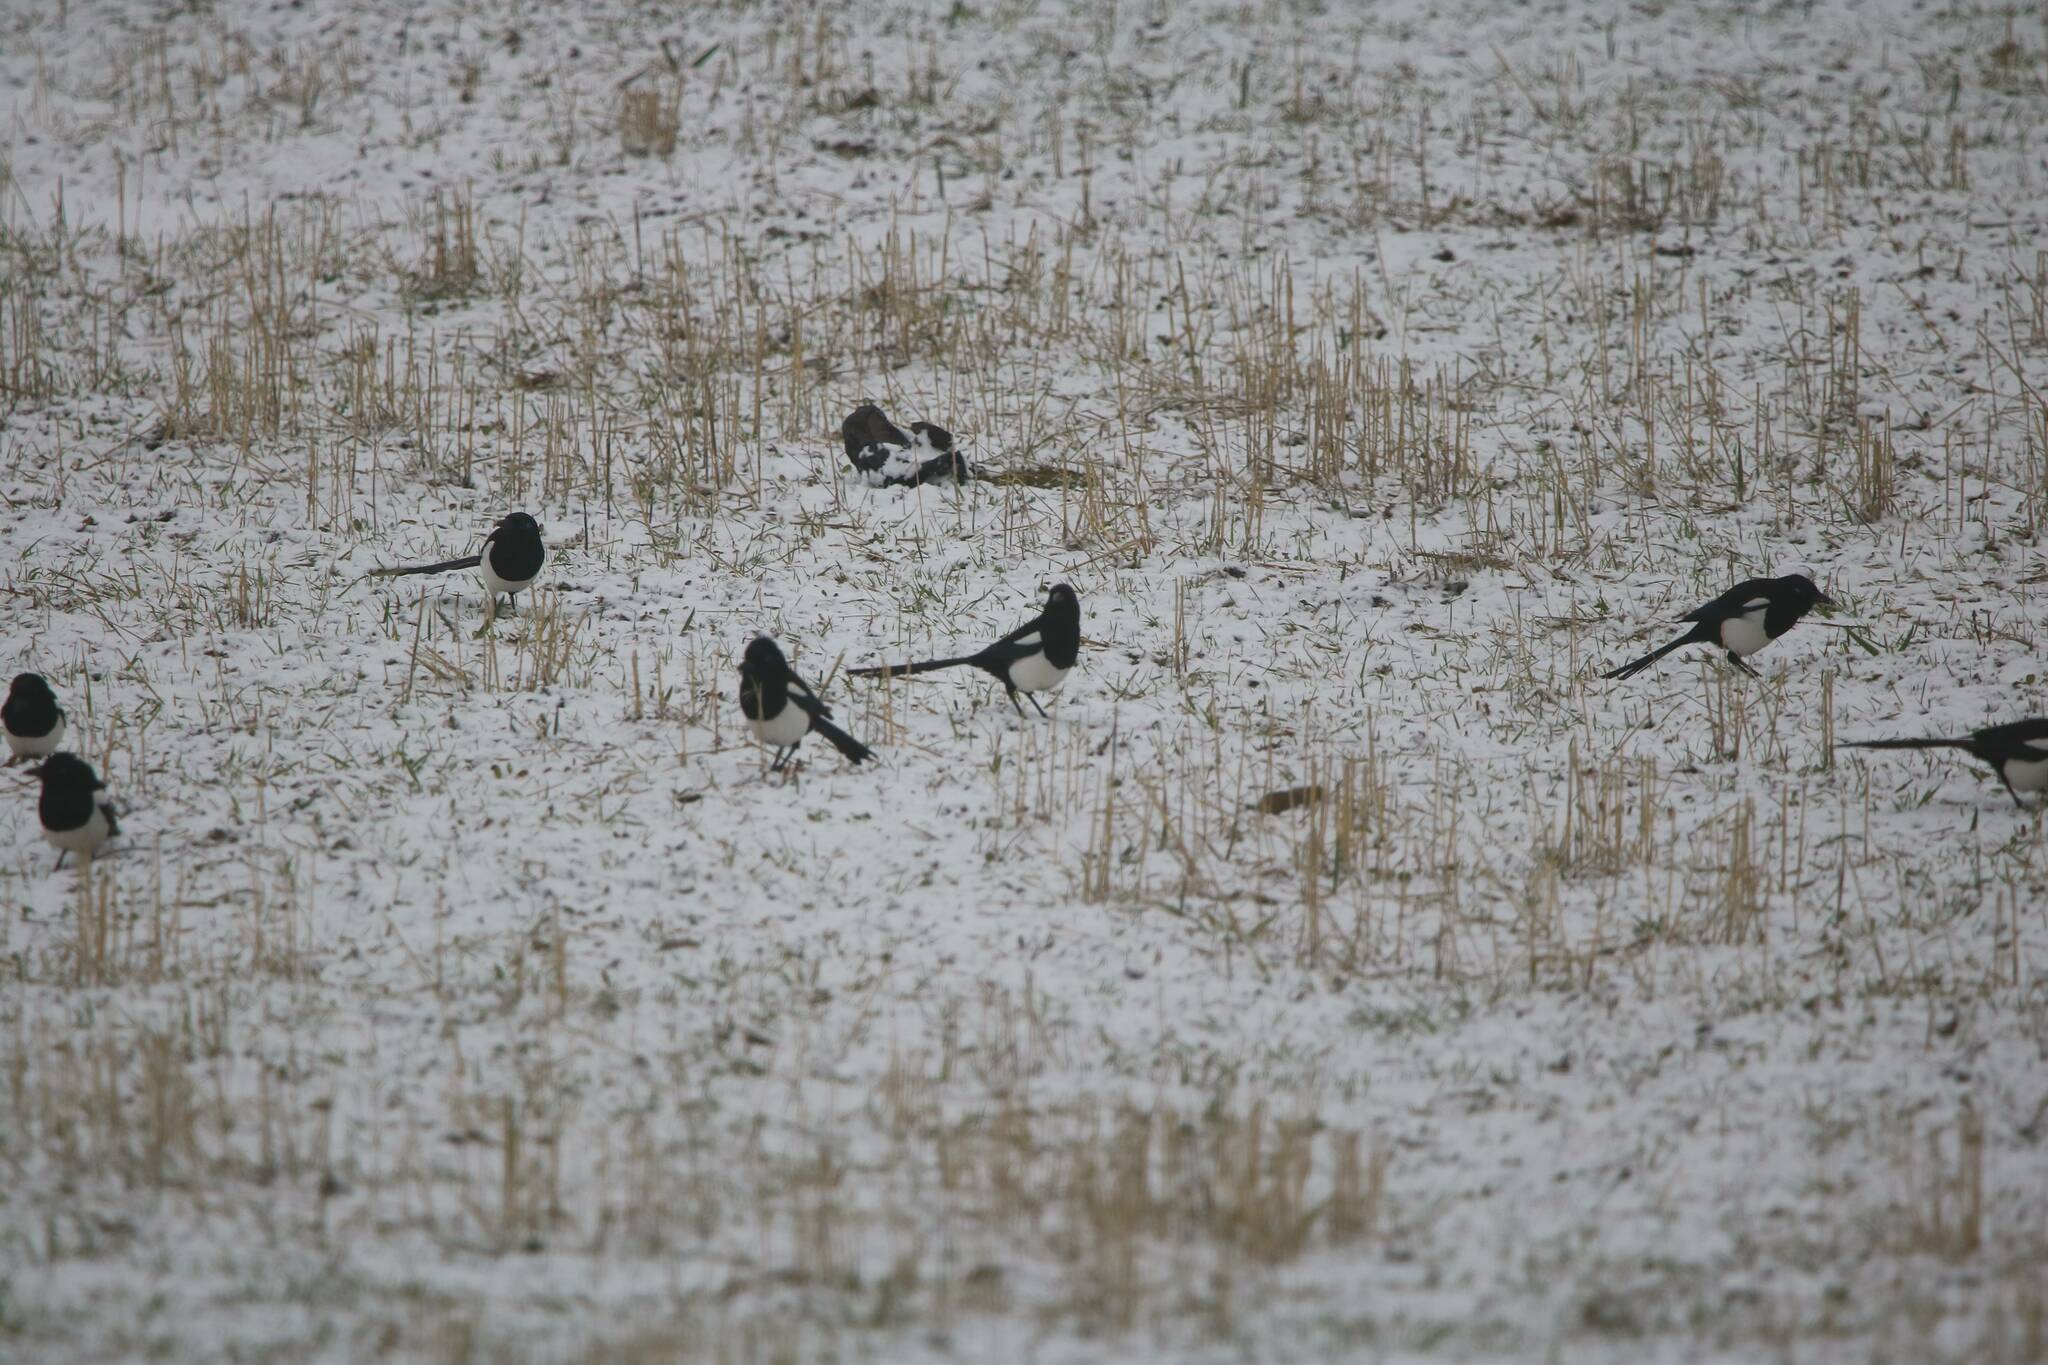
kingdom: Animalia
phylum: Chordata
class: Aves
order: Passeriformes
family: Corvidae
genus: Pica
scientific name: Pica mauritanica
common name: Maghreb magpie
